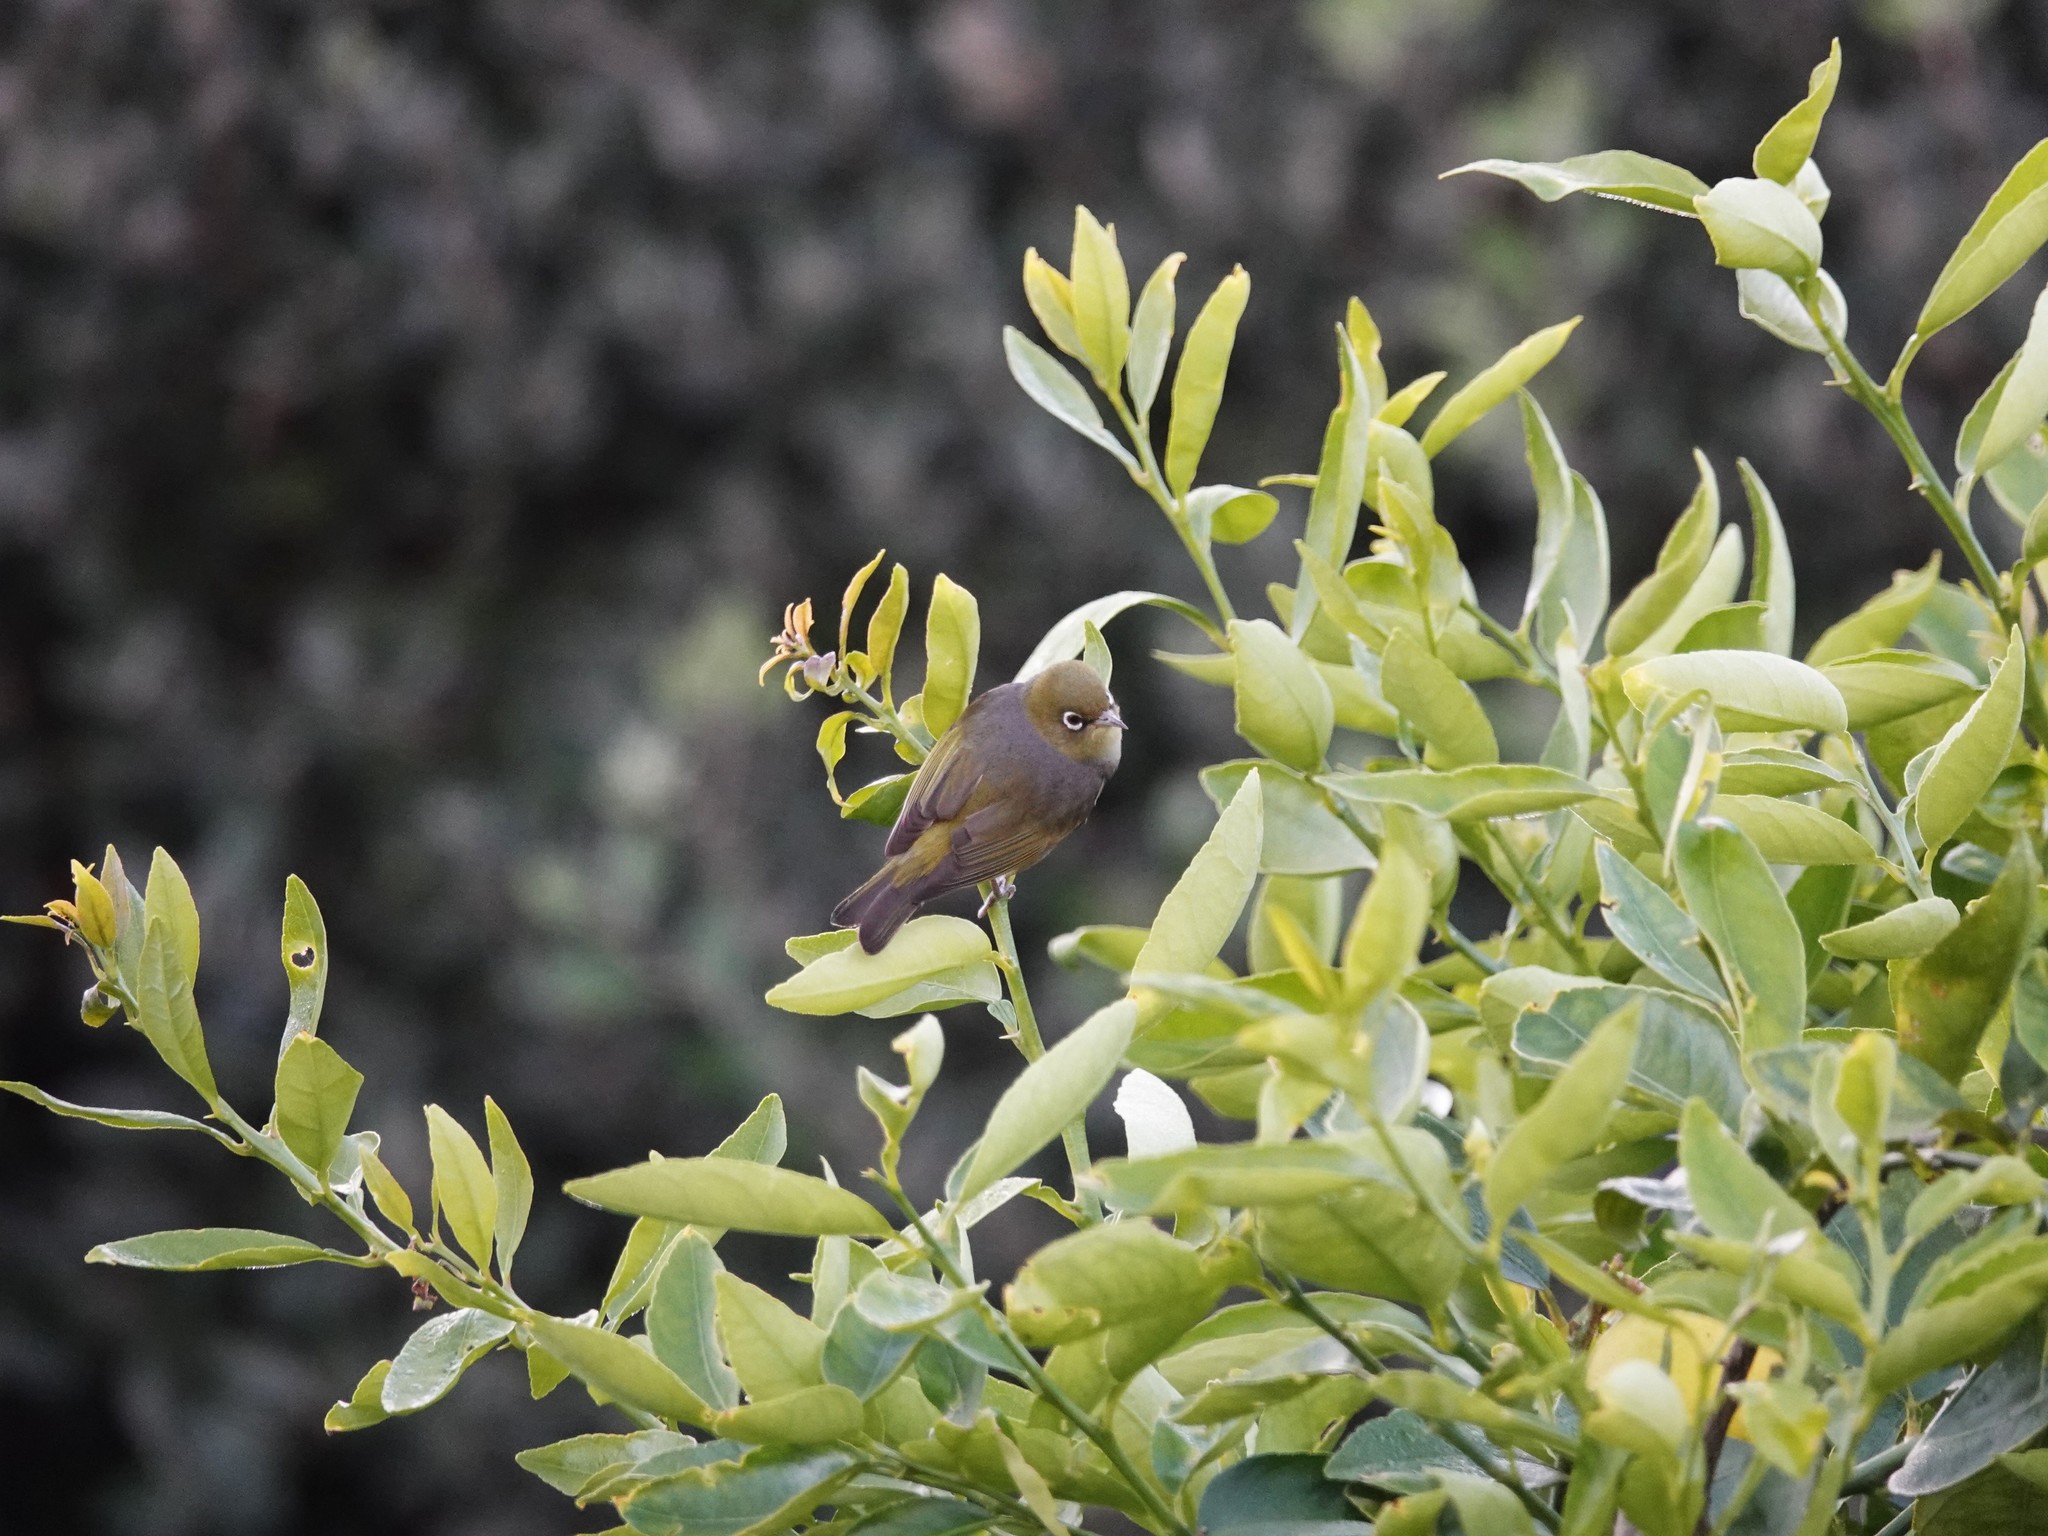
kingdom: Animalia
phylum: Chordata
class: Aves
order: Passeriformes
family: Zosteropidae
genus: Zosterops
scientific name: Zosterops lateralis
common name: Silvereye
